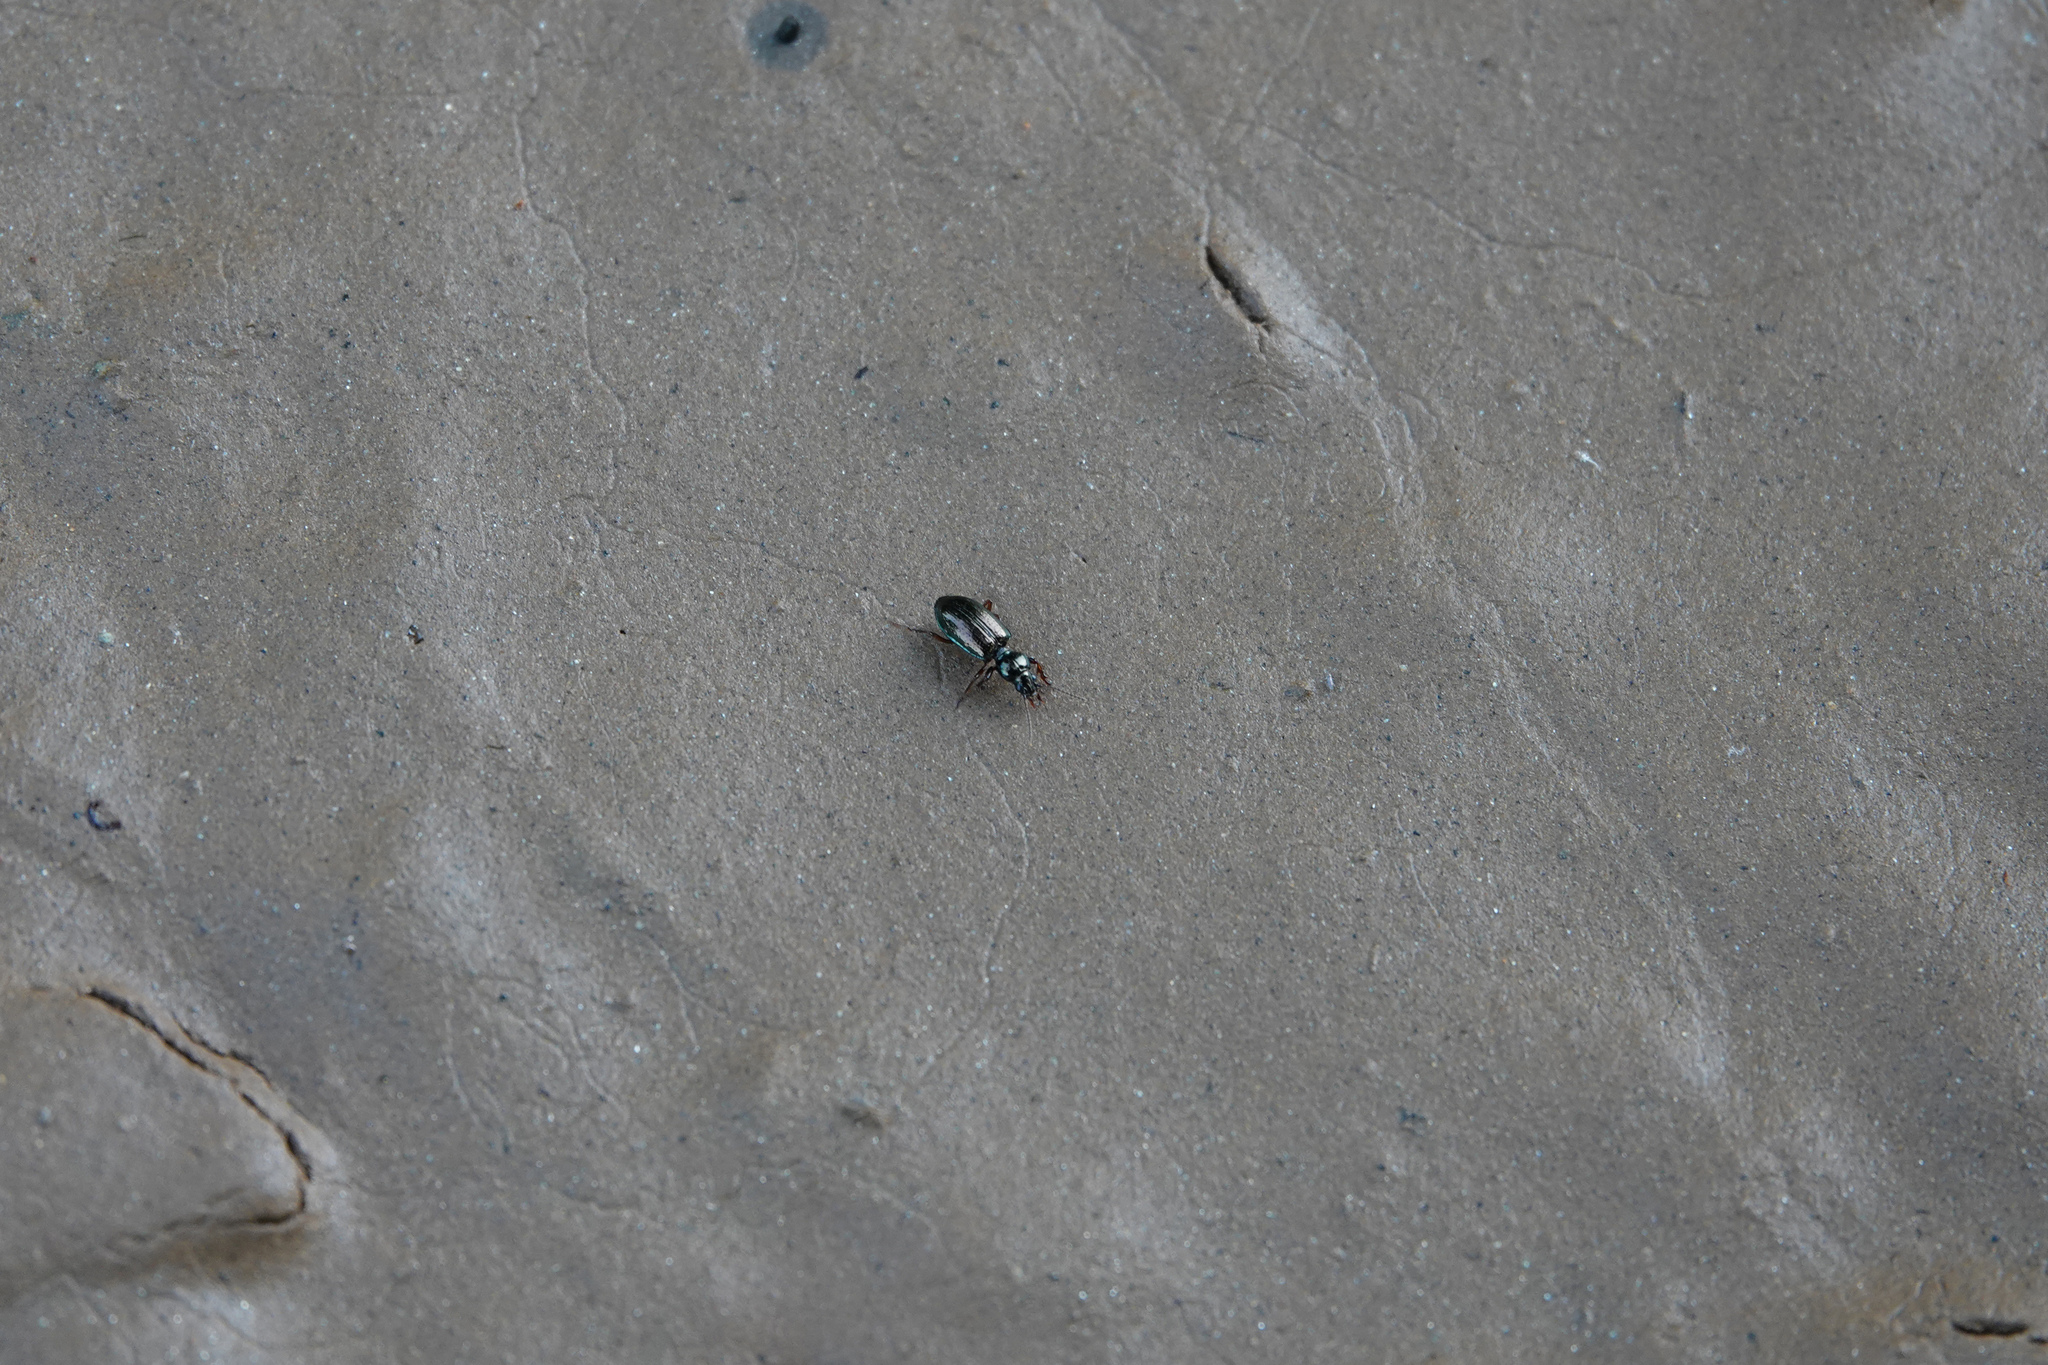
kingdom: Animalia
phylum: Arthropoda
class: Insecta
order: Coleoptera
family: Carabidae
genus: Semiardistomis
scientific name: Semiardistomis viridis
